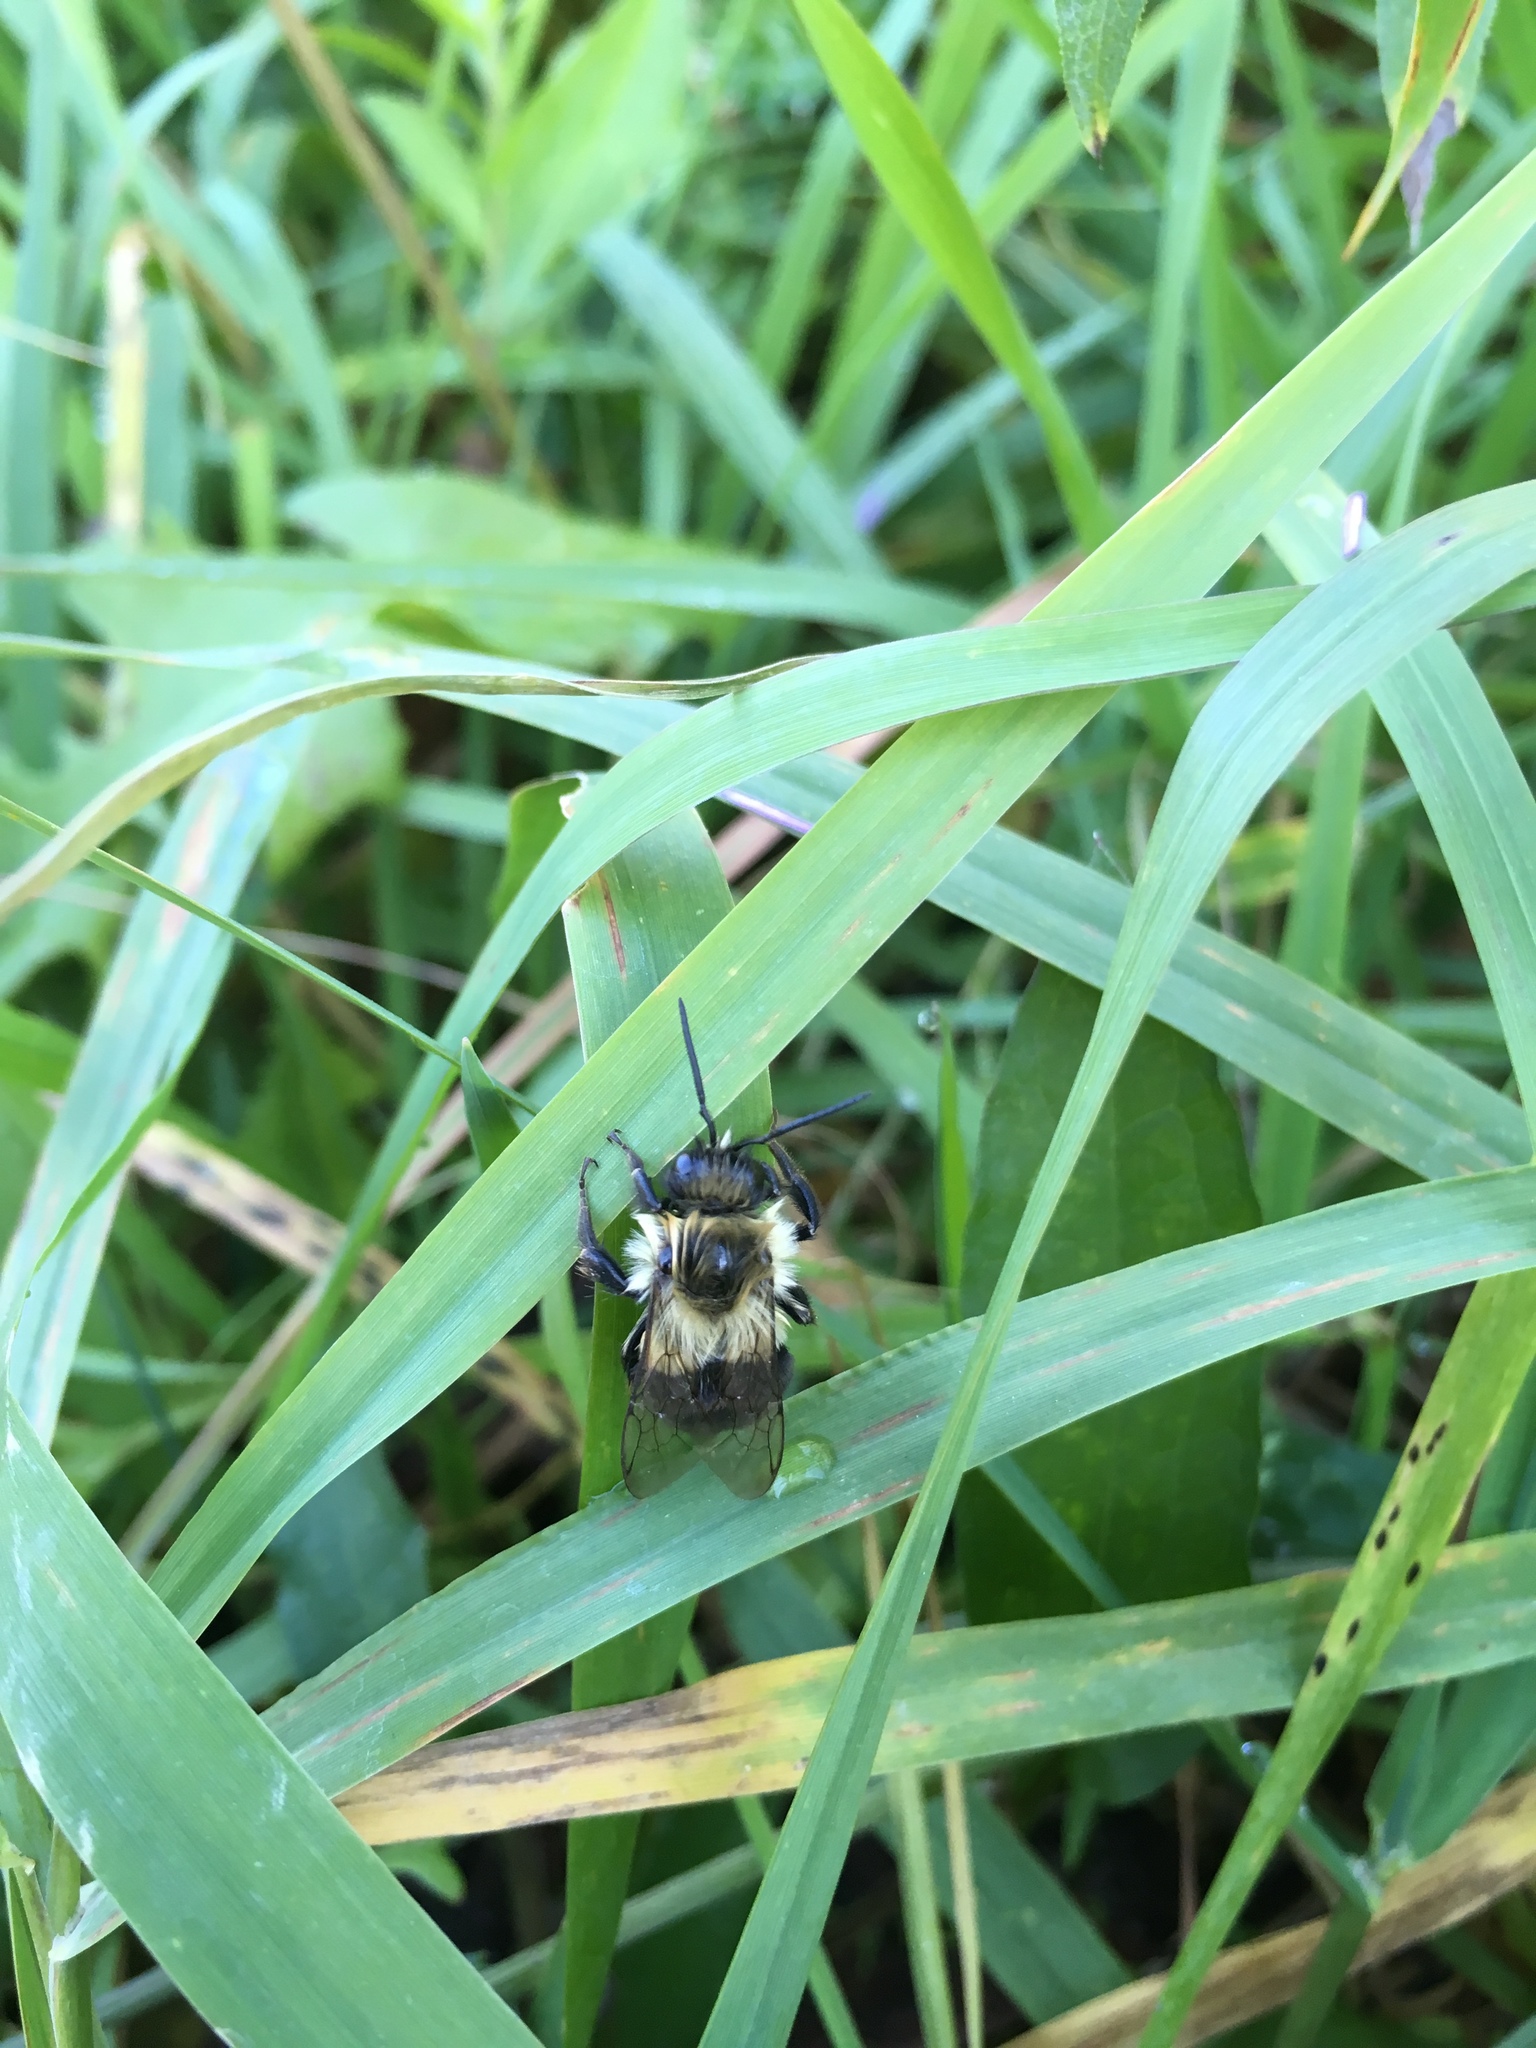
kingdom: Animalia
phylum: Arthropoda
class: Insecta
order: Hymenoptera
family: Apidae
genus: Bombus
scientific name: Bombus impatiens
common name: Common eastern bumble bee
